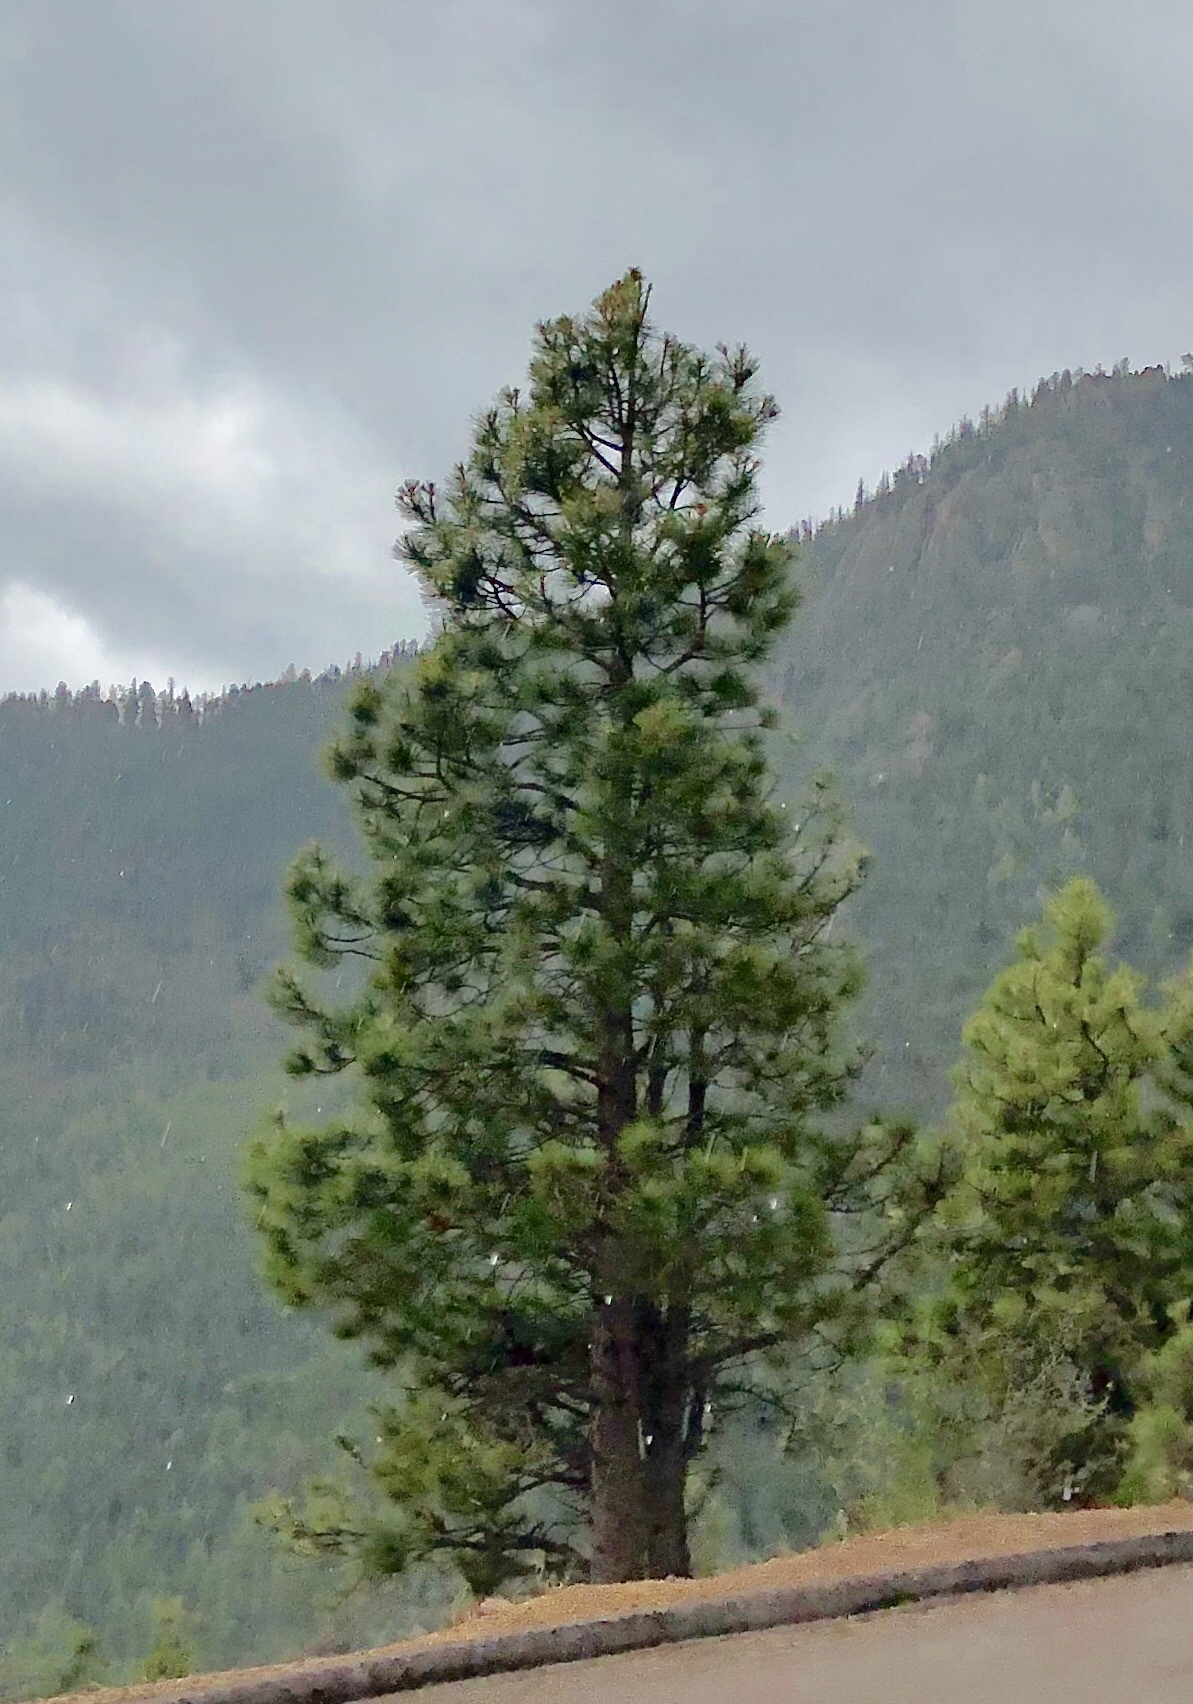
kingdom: Plantae
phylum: Tracheophyta
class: Pinopsida
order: Pinales
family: Pinaceae
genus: Pinus
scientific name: Pinus ponderosa
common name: Western yellow-pine
